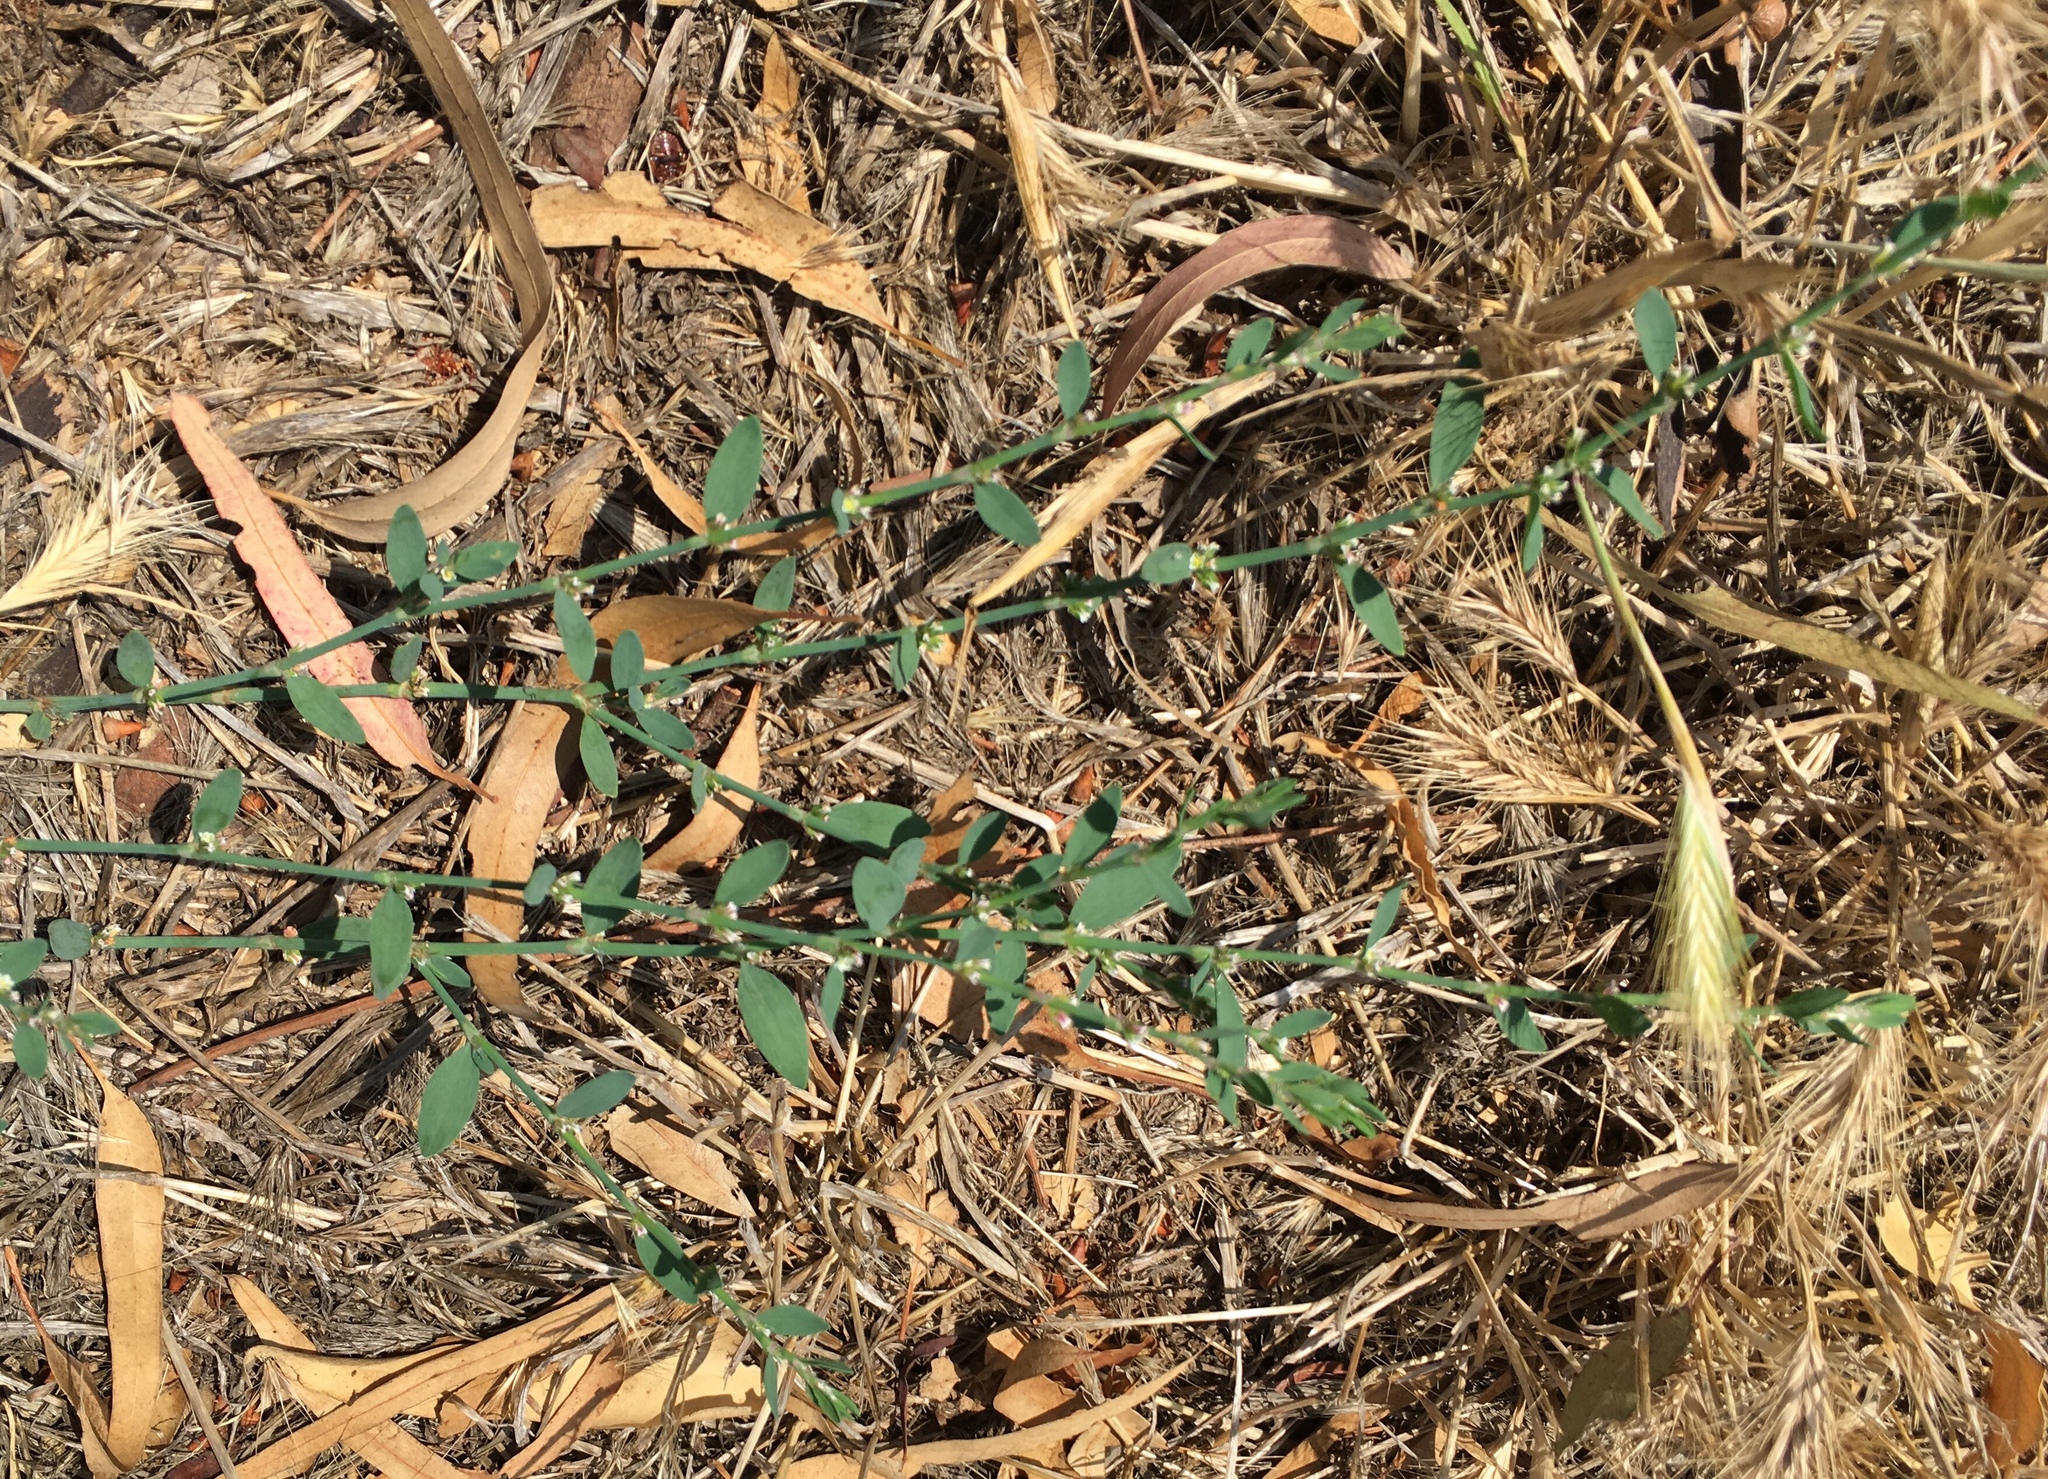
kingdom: Plantae
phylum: Tracheophyta
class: Magnoliopsida
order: Caryophyllales
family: Polygonaceae
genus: Polygonum
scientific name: Polygonum aviculare
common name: Prostrate knotweed
